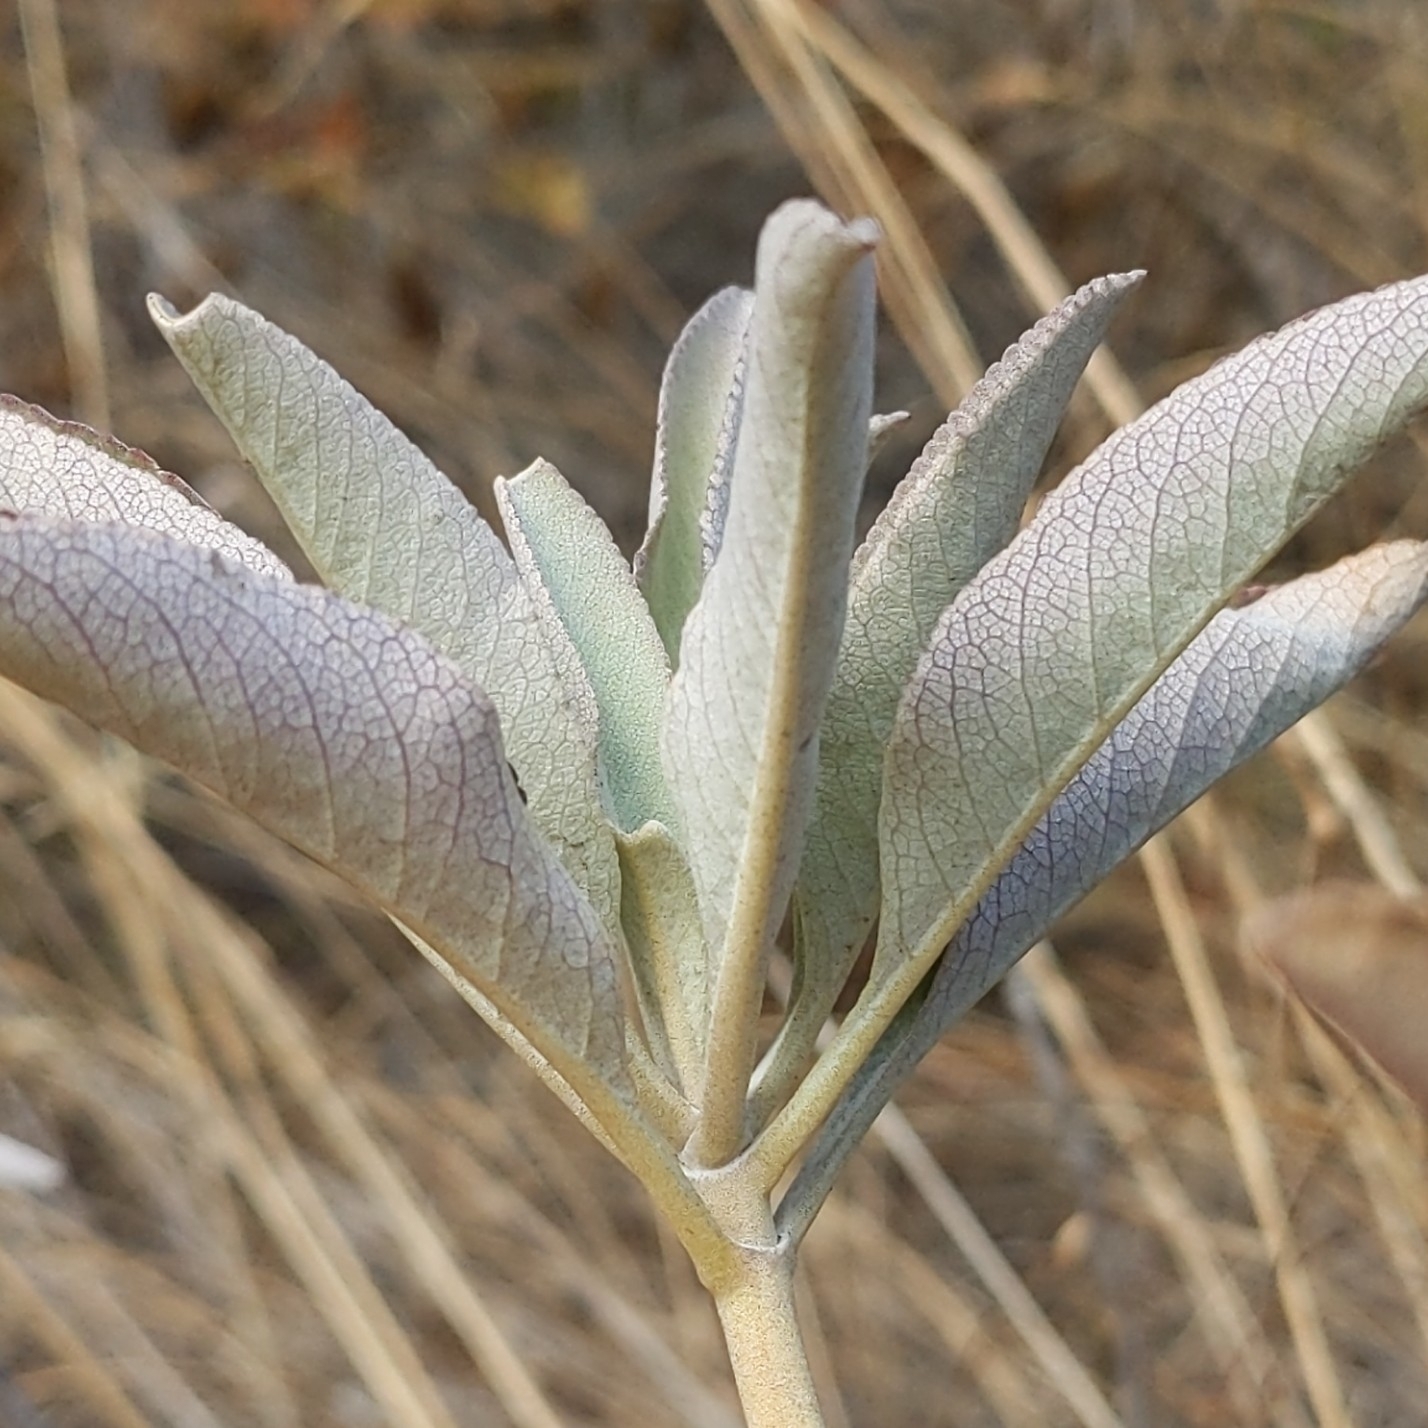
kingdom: Plantae
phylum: Tracheophyta
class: Magnoliopsida
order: Lamiales
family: Lamiaceae
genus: Salvia
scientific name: Salvia apiana
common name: White sage
